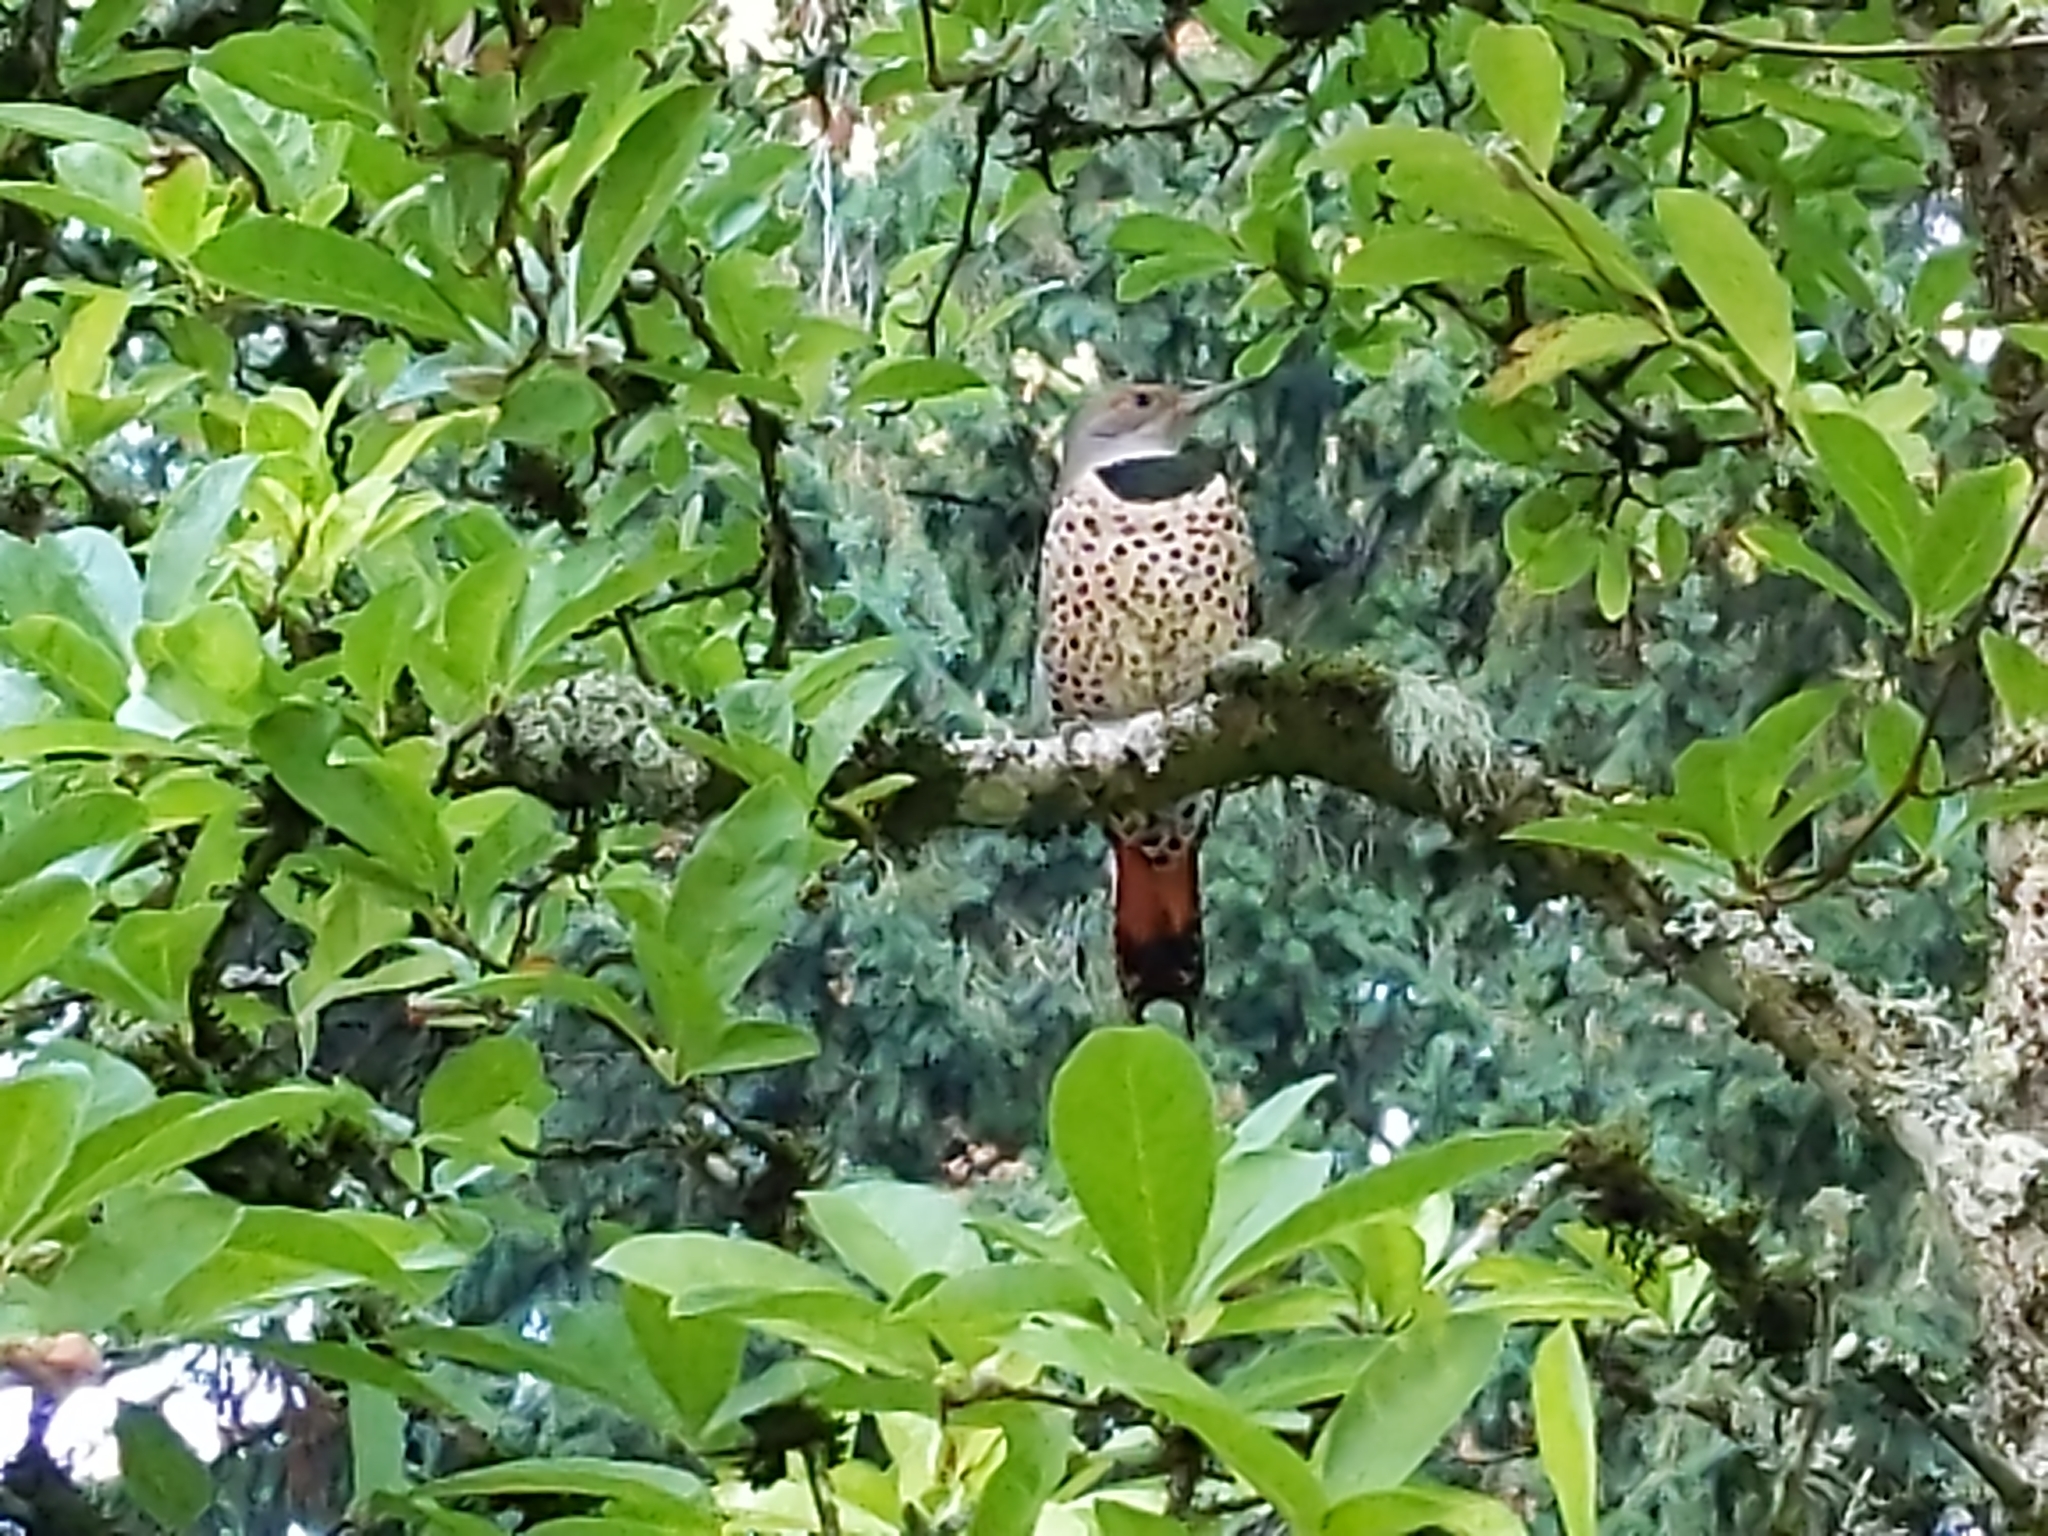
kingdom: Animalia
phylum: Chordata
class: Aves
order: Piciformes
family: Picidae
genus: Colaptes
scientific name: Colaptes auratus
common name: Northern flicker
